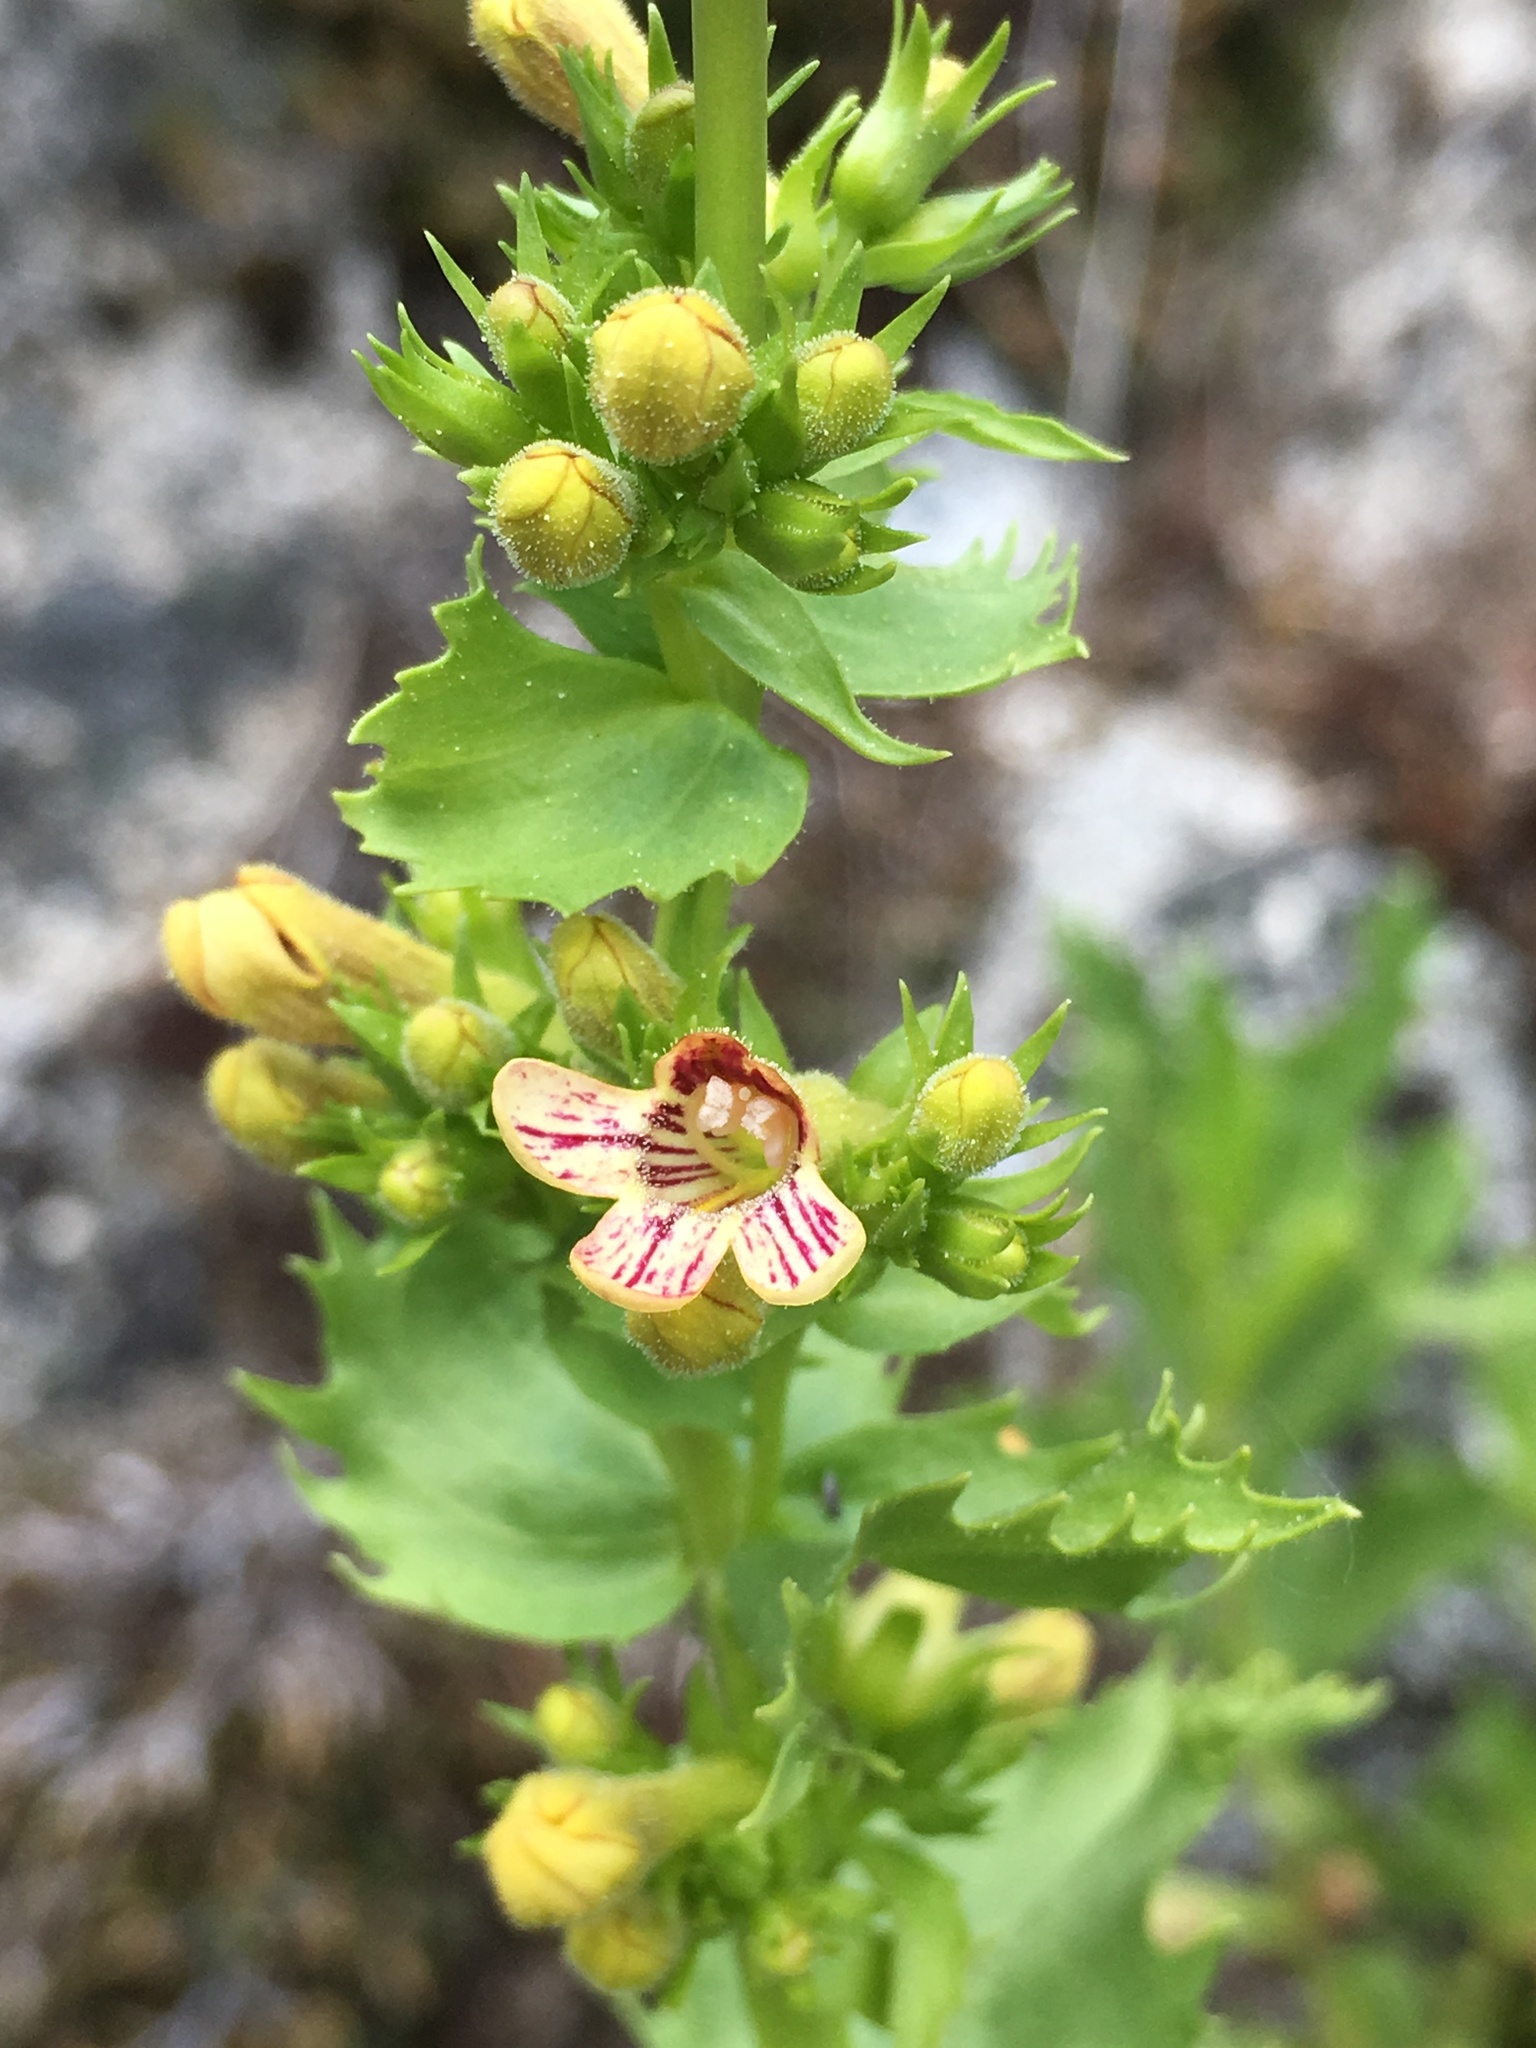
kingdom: Plantae
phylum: Tracheophyta
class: Magnoliopsida
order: Lamiales
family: Plantaginaceae
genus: Penstemon
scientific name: Penstemon deustus
